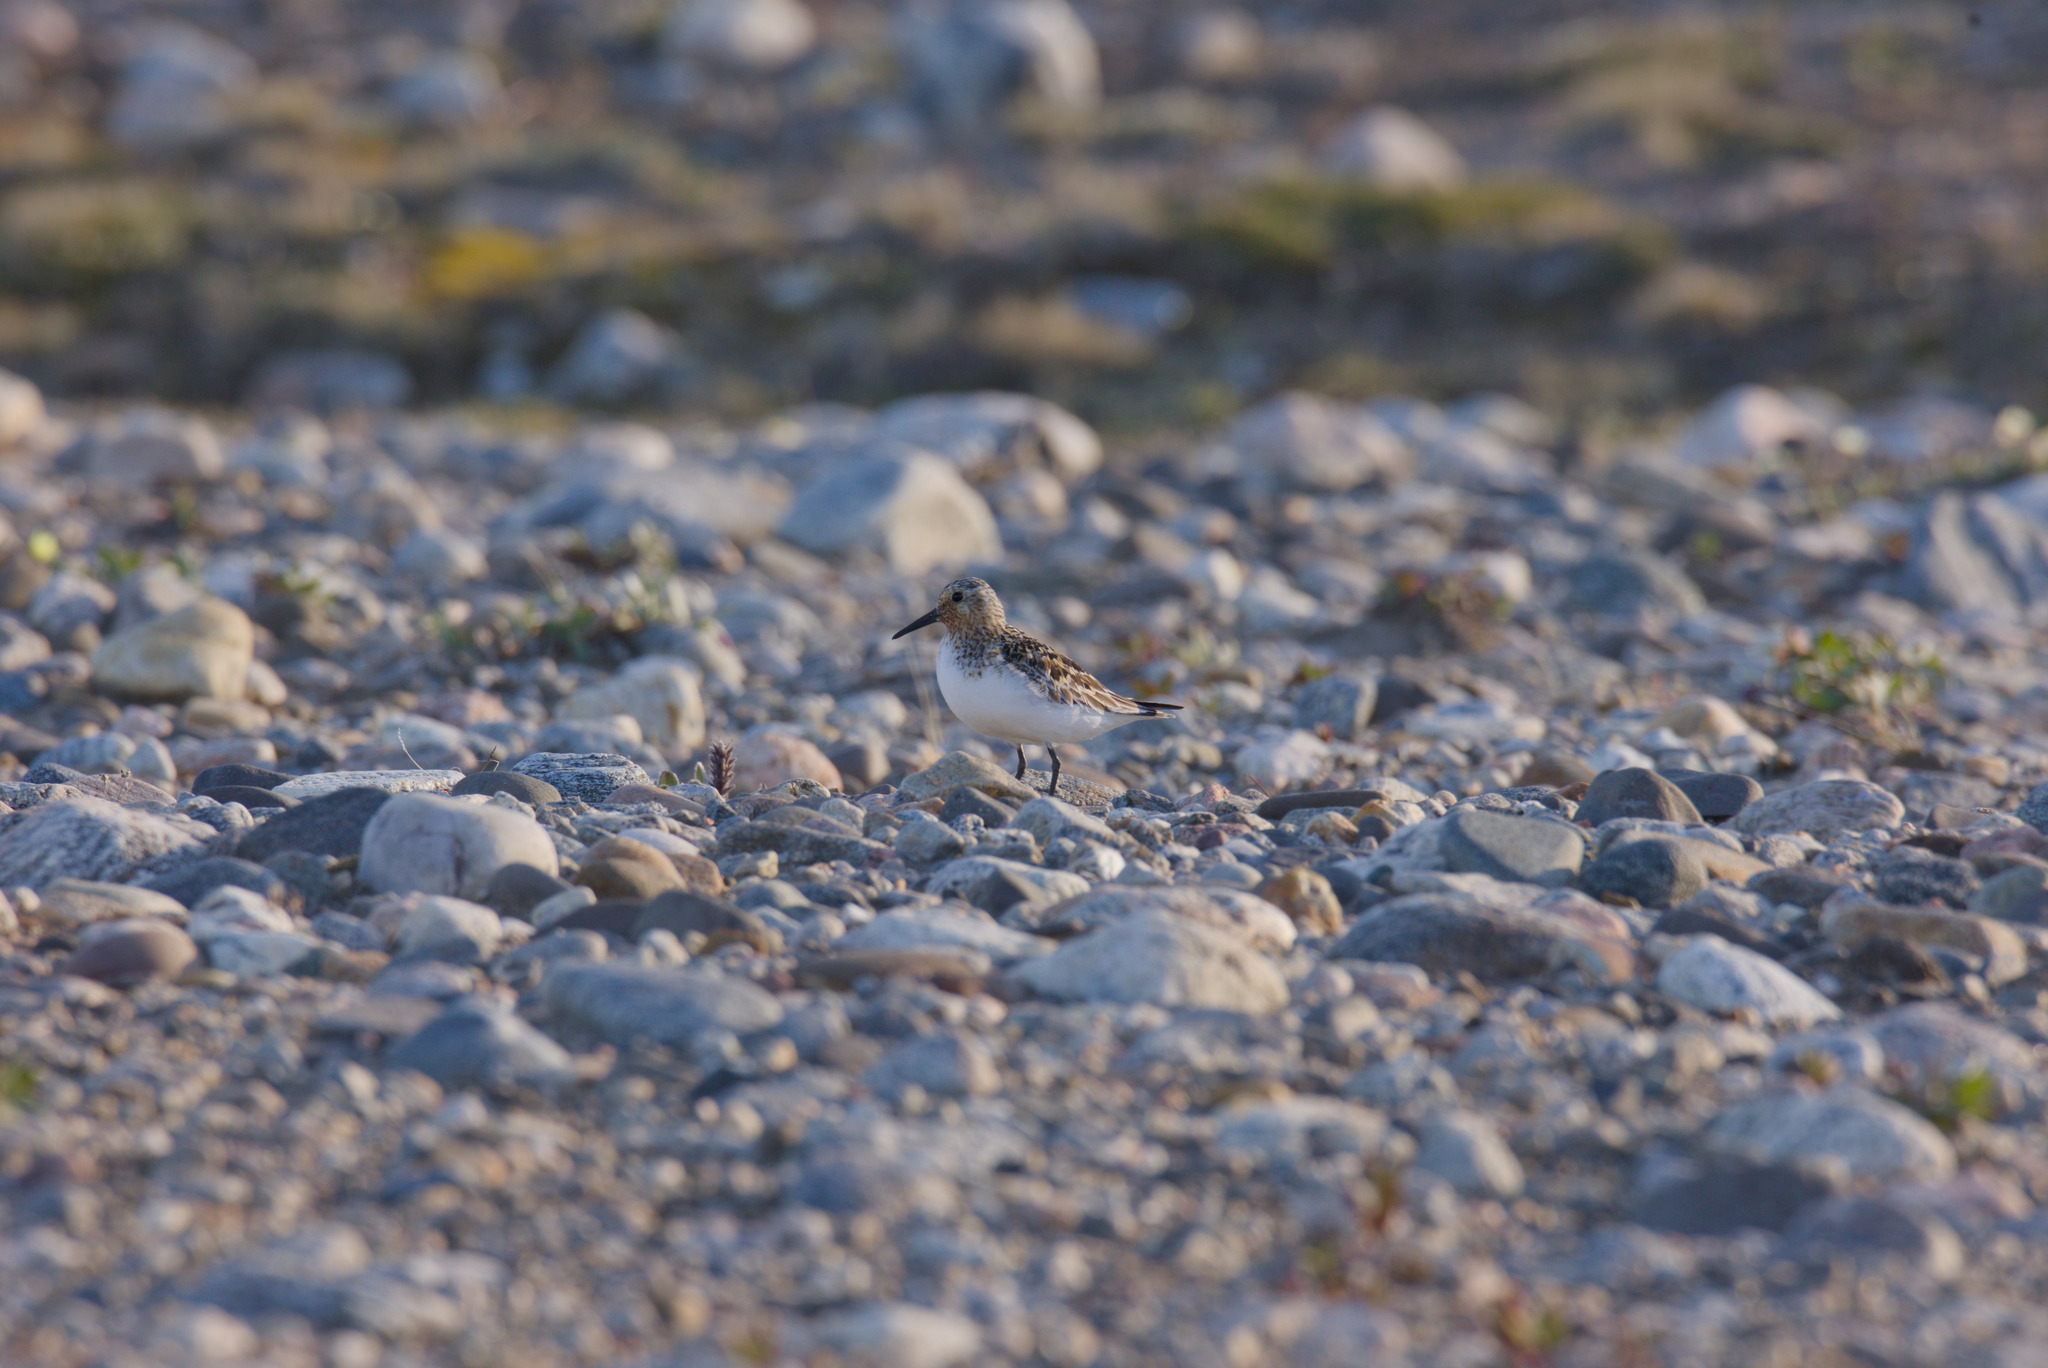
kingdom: Animalia
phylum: Chordata
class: Aves
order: Charadriiformes
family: Scolopacidae
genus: Calidris
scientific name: Calidris alba
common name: Sanderling
